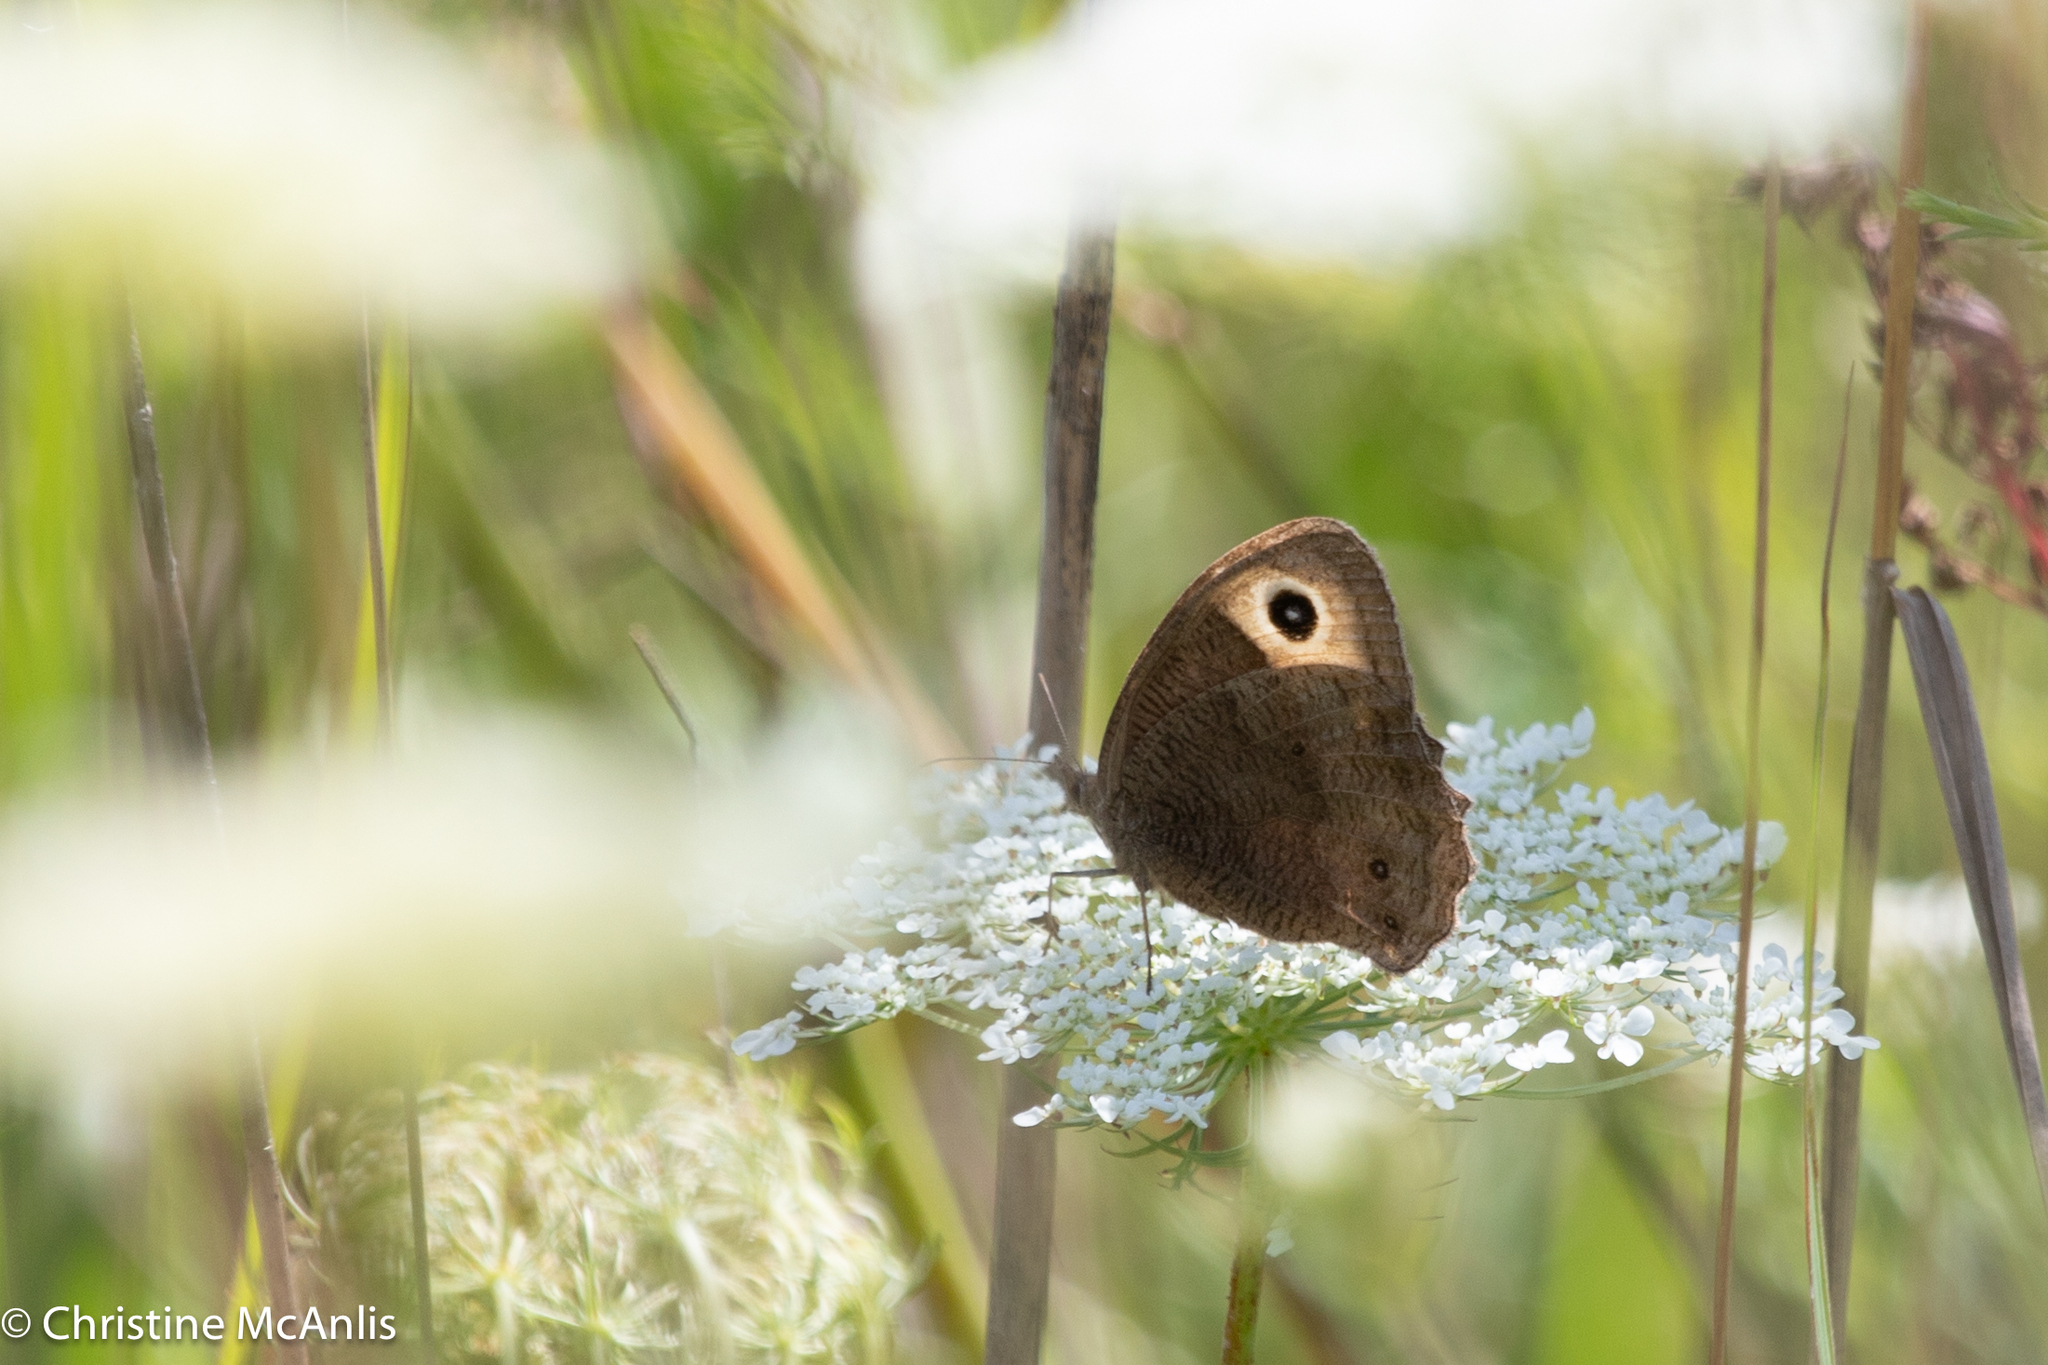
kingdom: Animalia
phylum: Arthropoda
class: Insecta
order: Lepidoptera
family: Nymphalidae
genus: Cercyonis
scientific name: Cercyonis pegala
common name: Common wood-nymph
